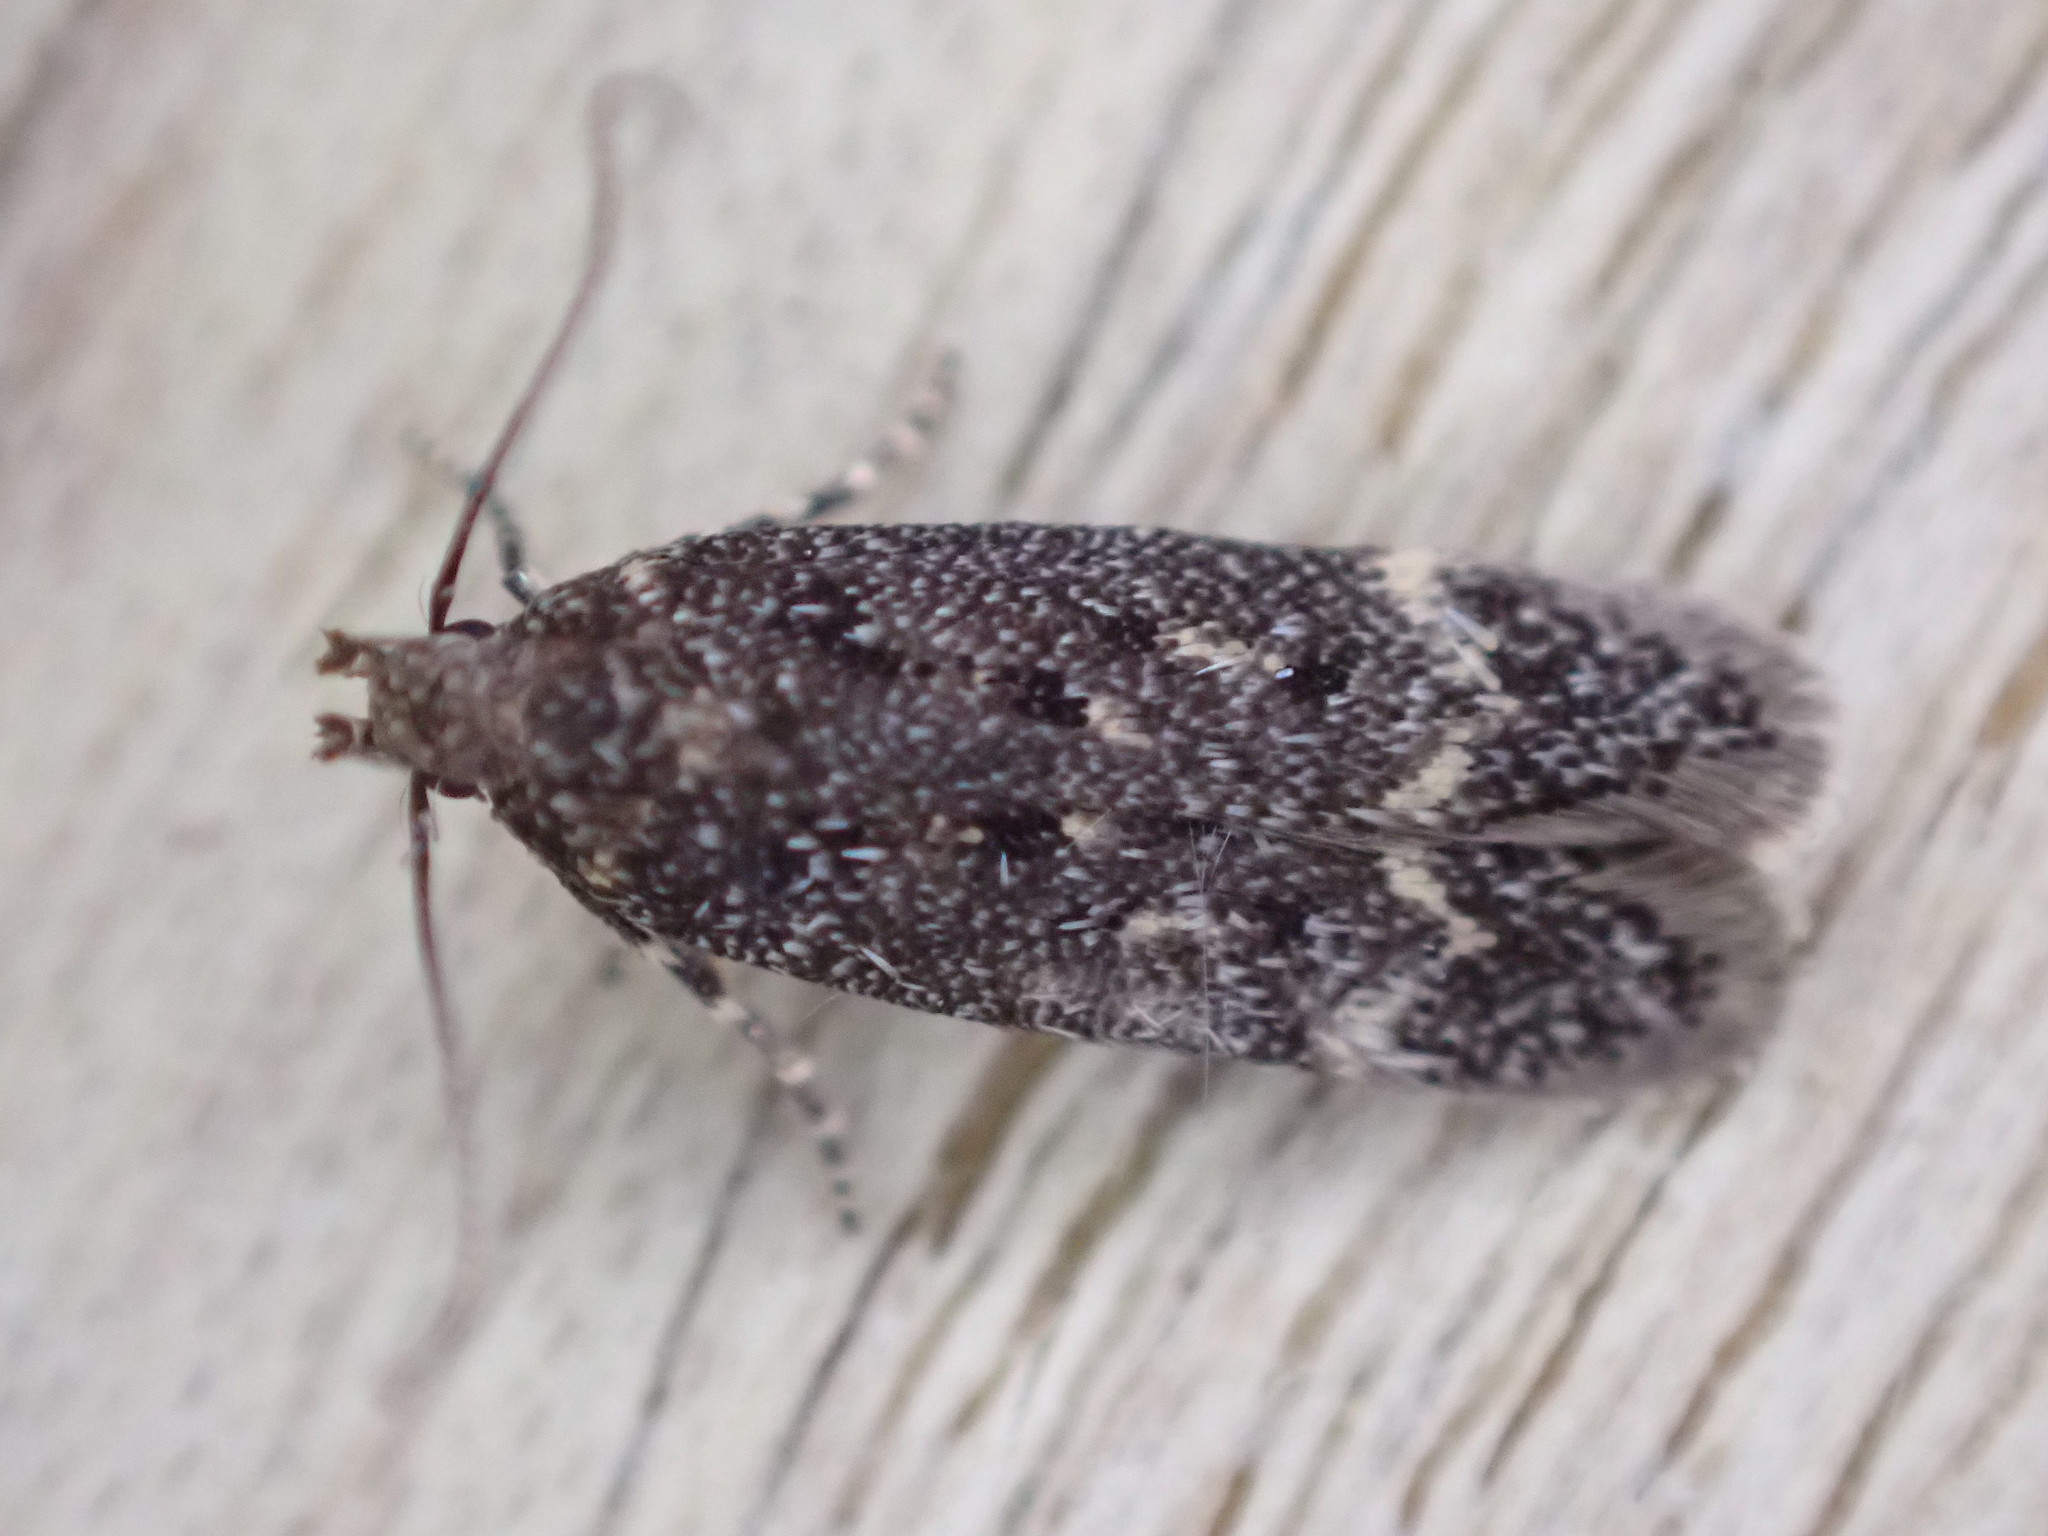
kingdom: Animalia
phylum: Arthropoda
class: Insecta
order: Lepidoptera
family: Gelechiidae
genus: Bryotropha
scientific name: Bryotropha affinis
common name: Dark groundling
